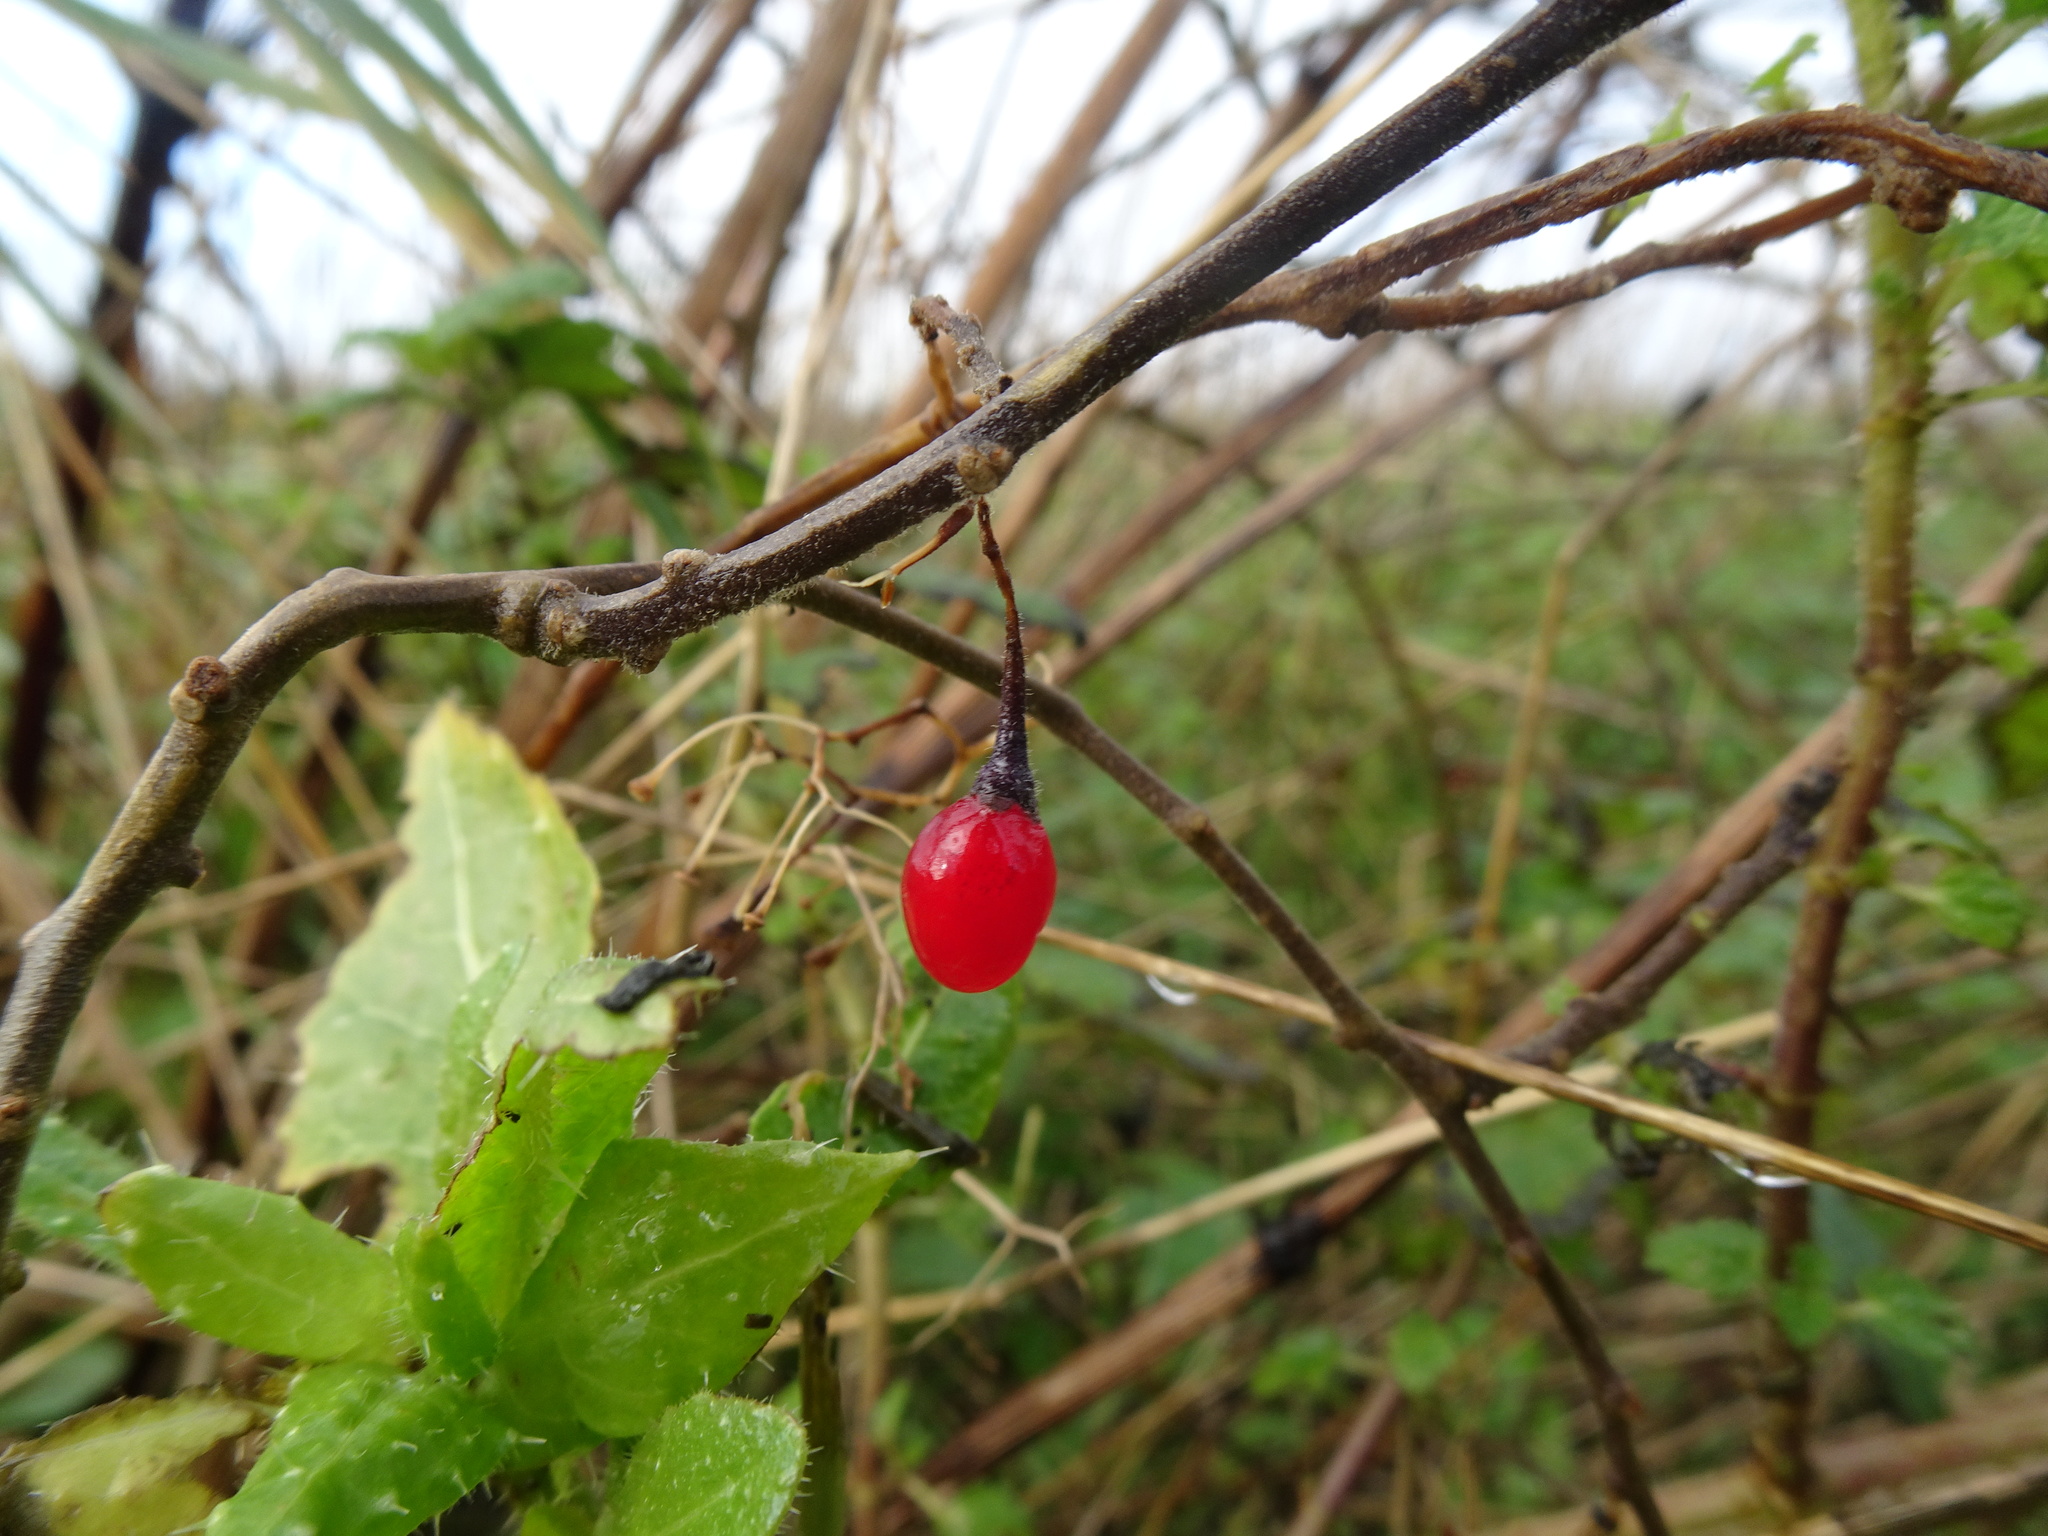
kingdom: Plantae
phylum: Tracheophyta
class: Magnoliopsida
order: Solanales
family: Solanaceae
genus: Solanum
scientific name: Solanum dulcamara
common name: Climbing nightshade
